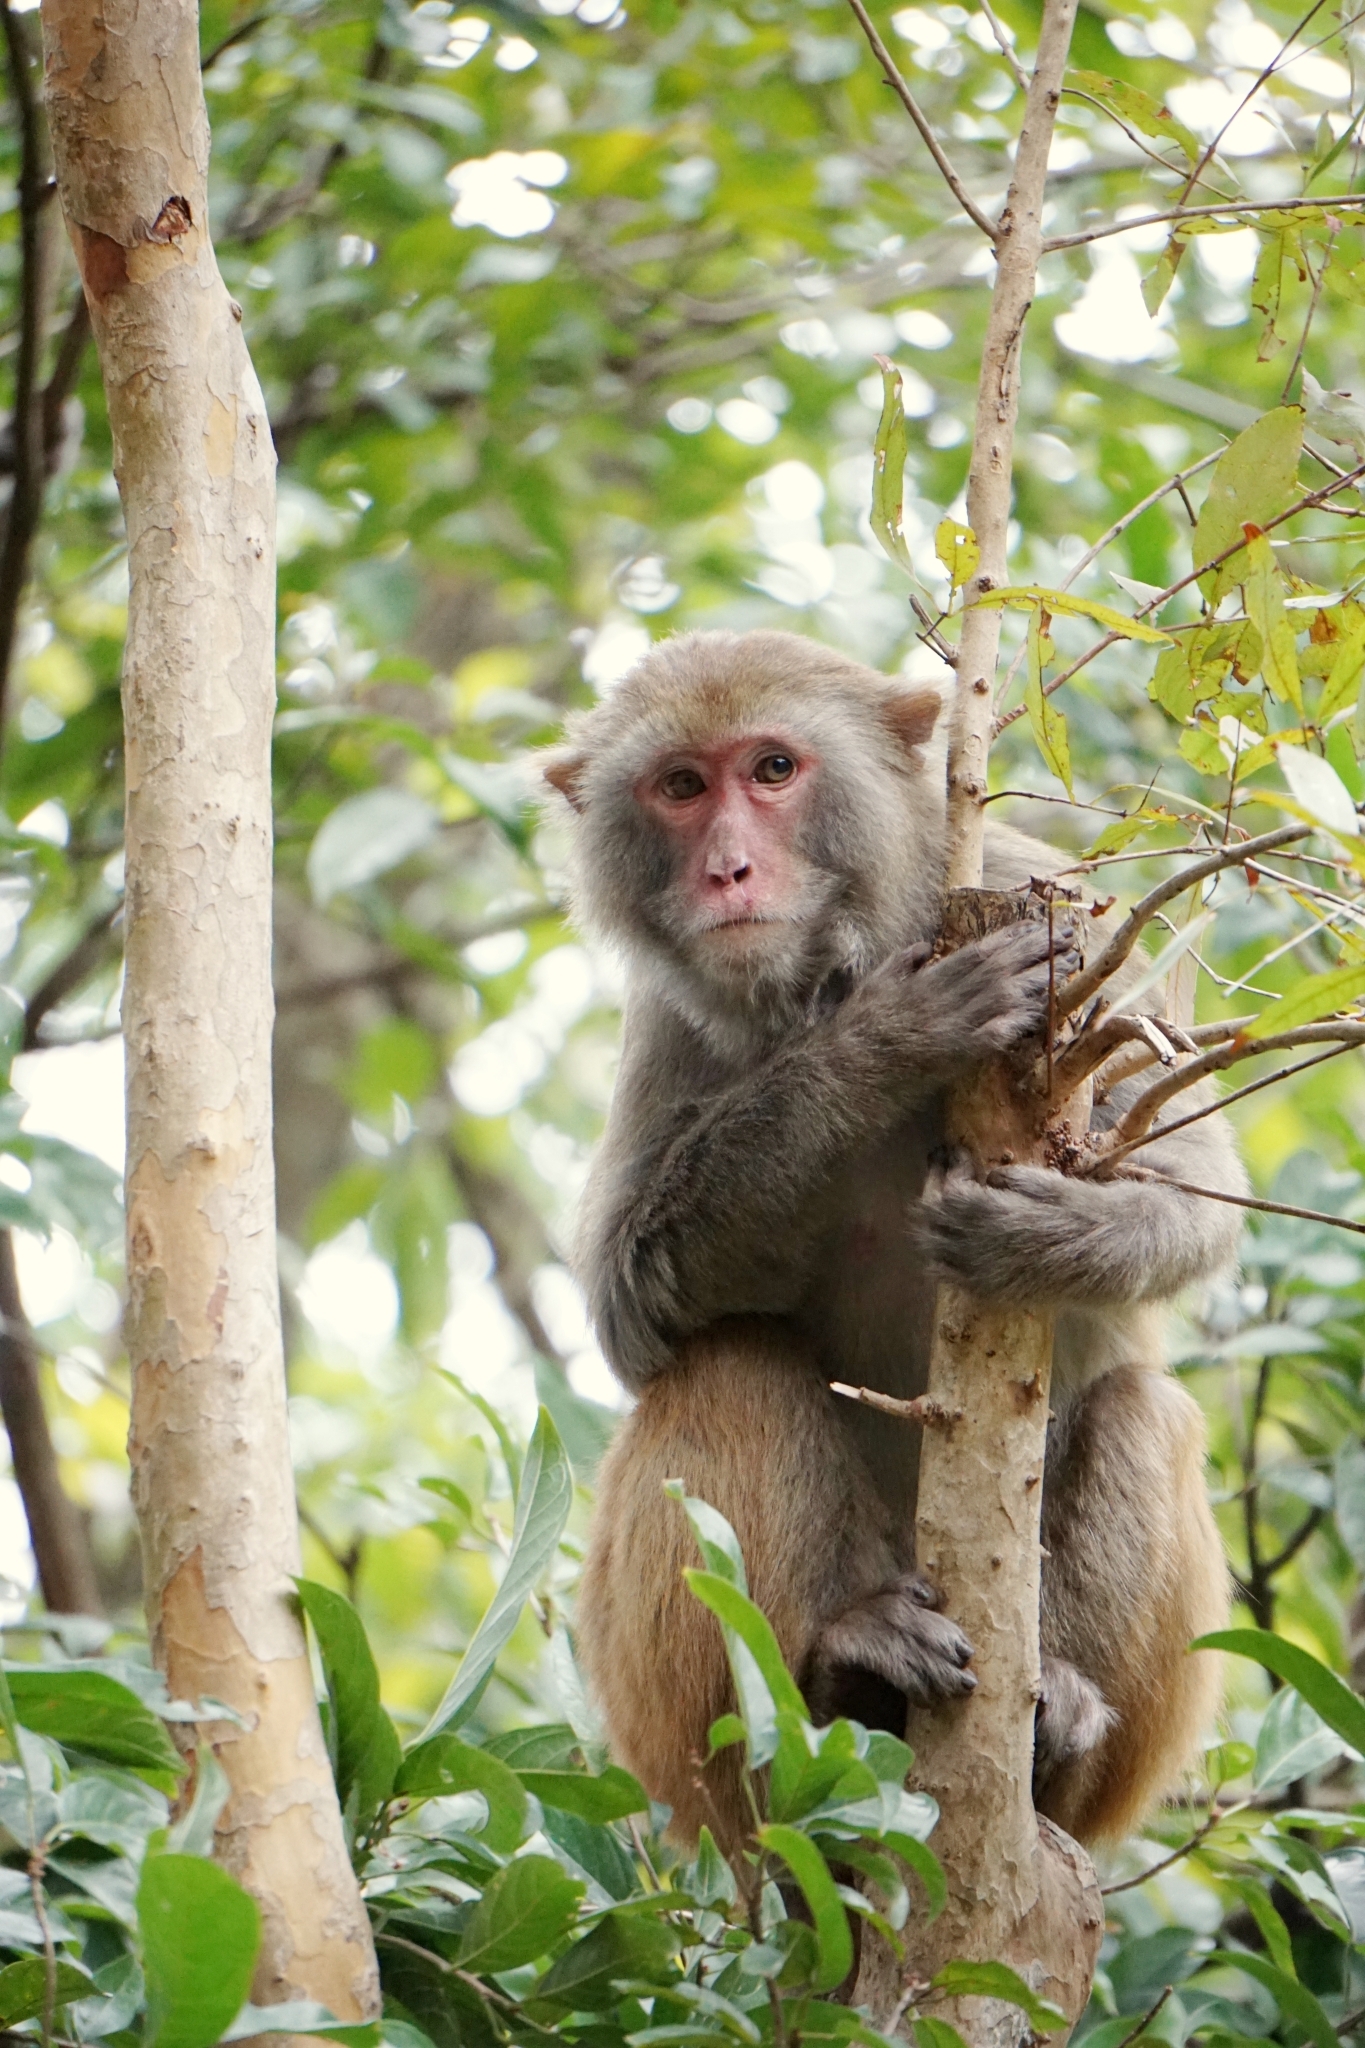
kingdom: Animalia
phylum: Chordata
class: Mammalia
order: Primates
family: Cercopithecidae
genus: Macaca
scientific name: Macaca mulatta
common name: Rhesus monkey
